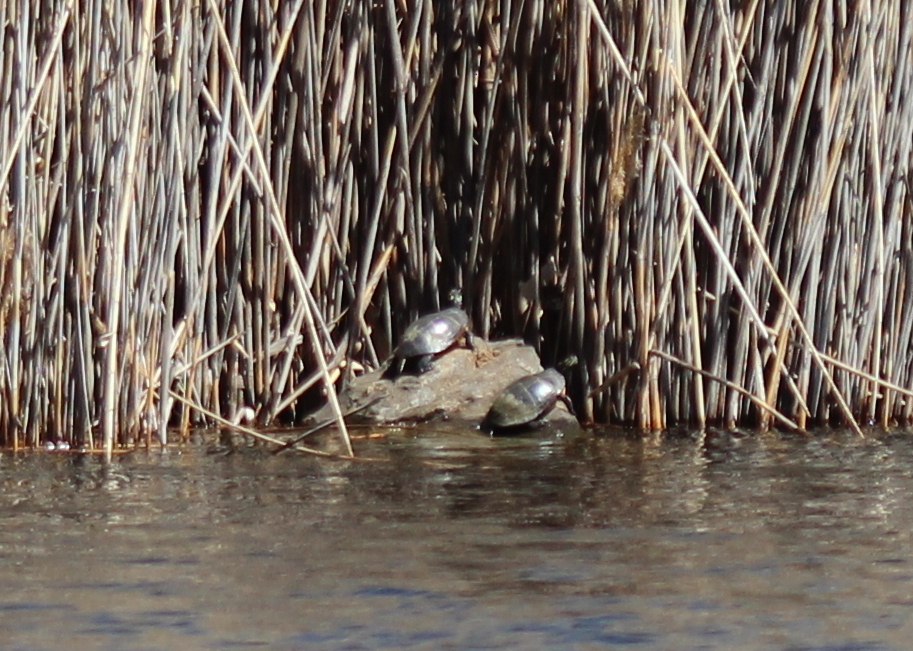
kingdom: Animalia
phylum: Chordata
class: Testudines
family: Emydidae
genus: Chrysemys
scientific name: Chrysemys picta
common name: Painted turtle
